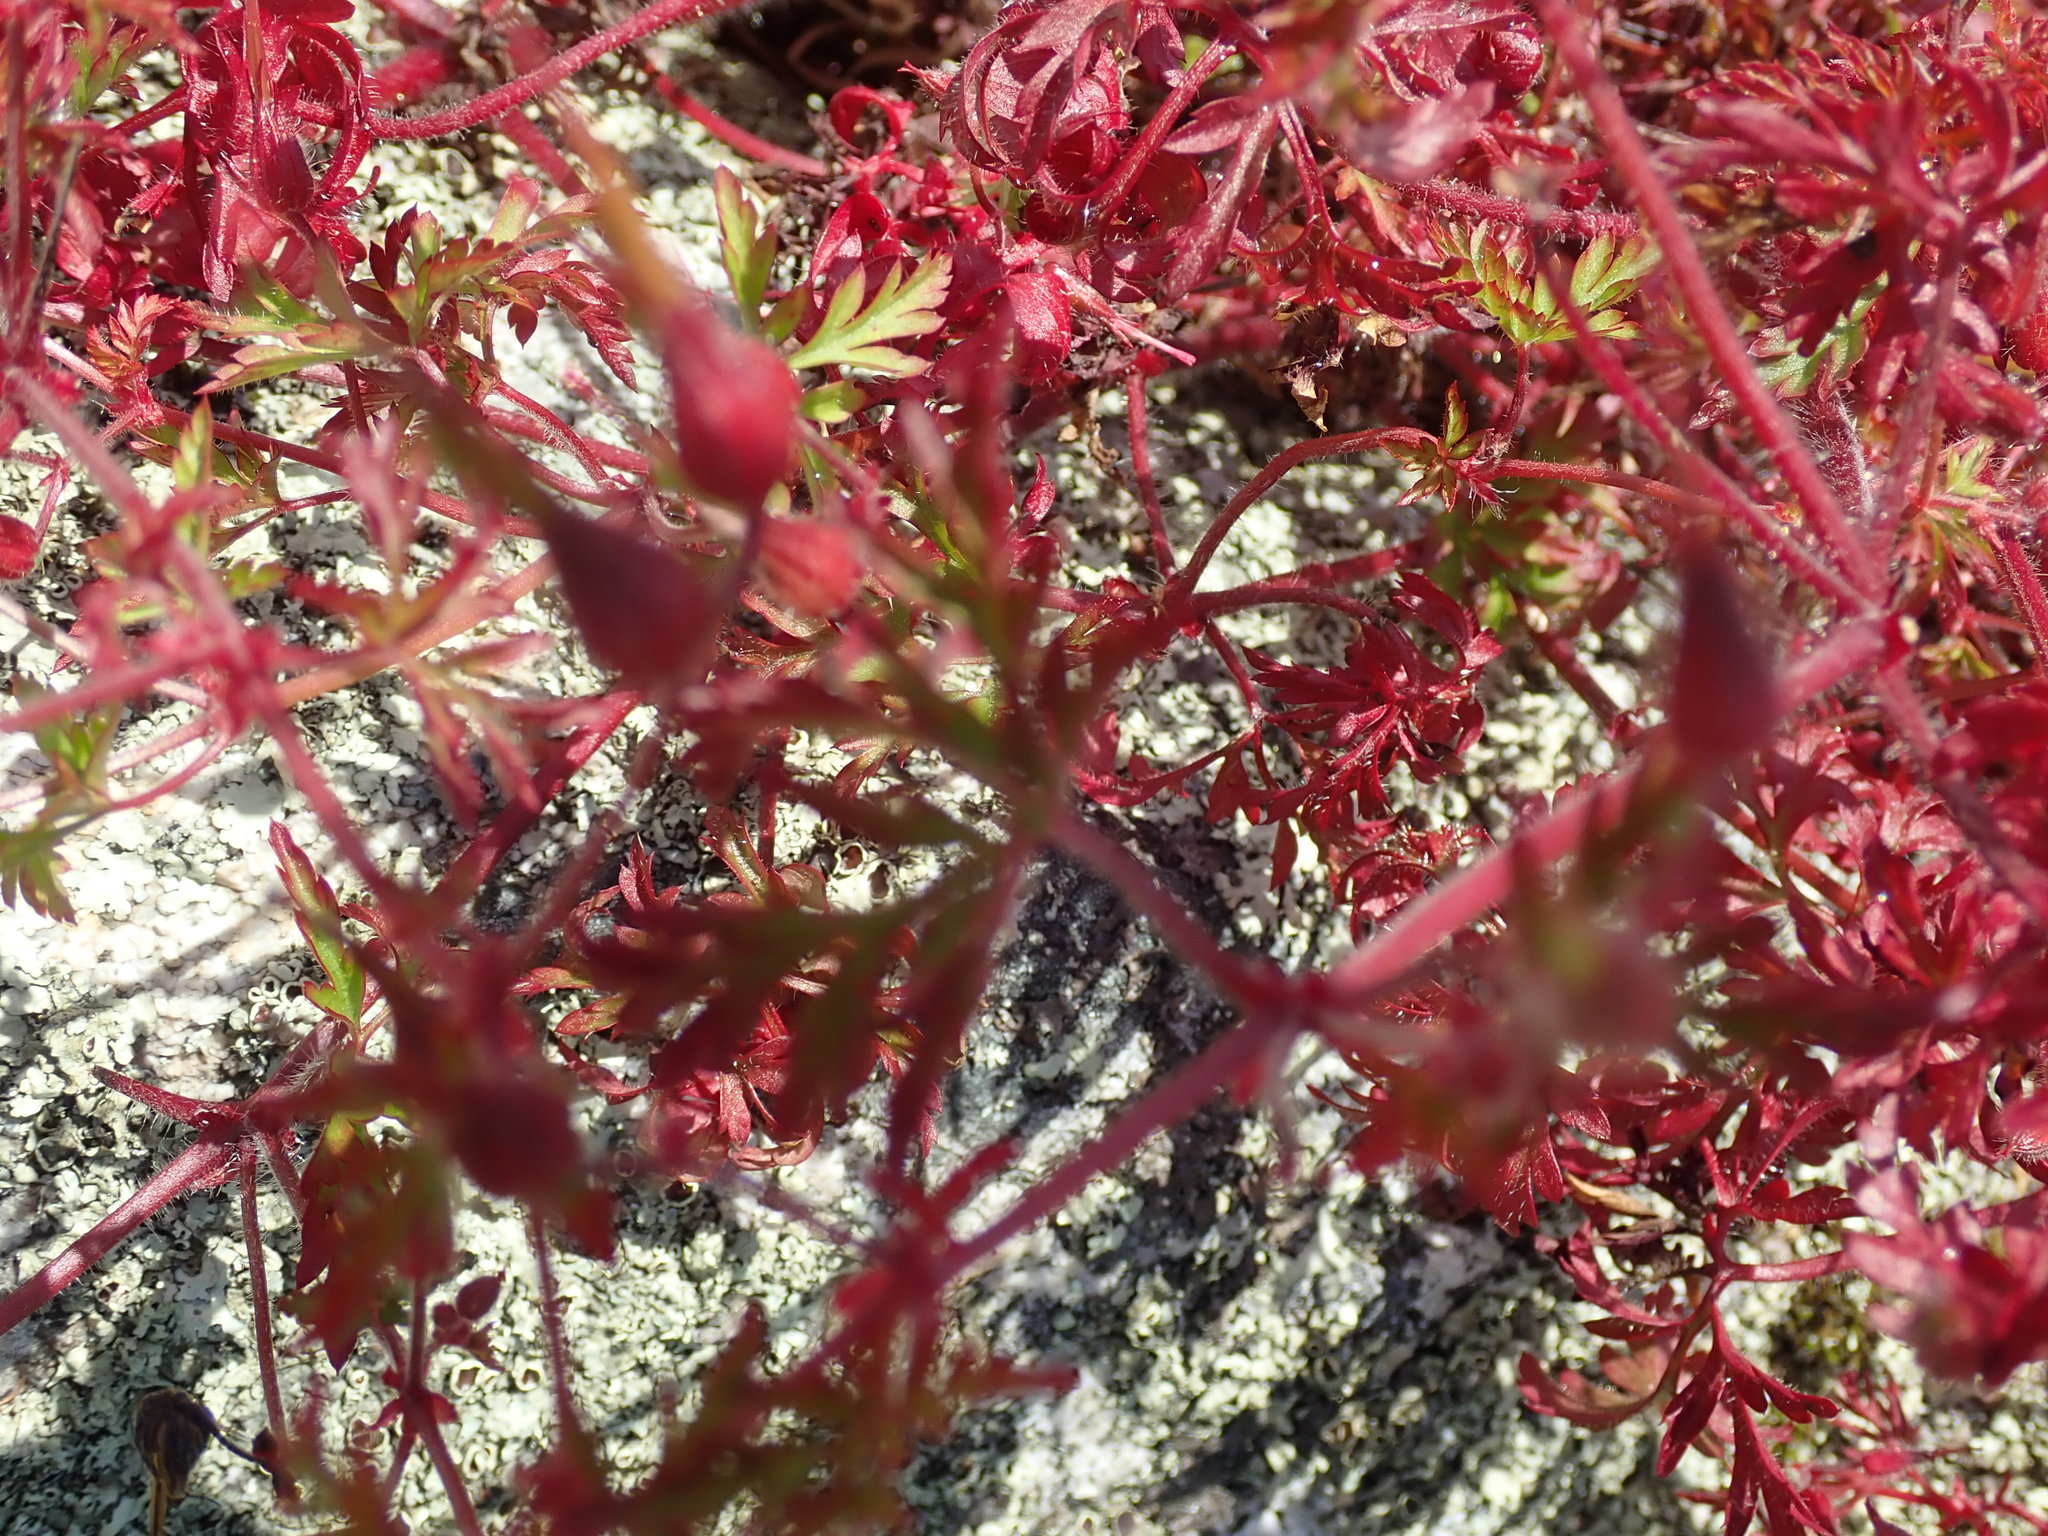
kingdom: Plantae
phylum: Tracheophyta
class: Magnoliopsida
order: Geraniales
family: Geraniaceae
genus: Geranium
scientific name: Geranium robertianum
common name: Herb-robert
